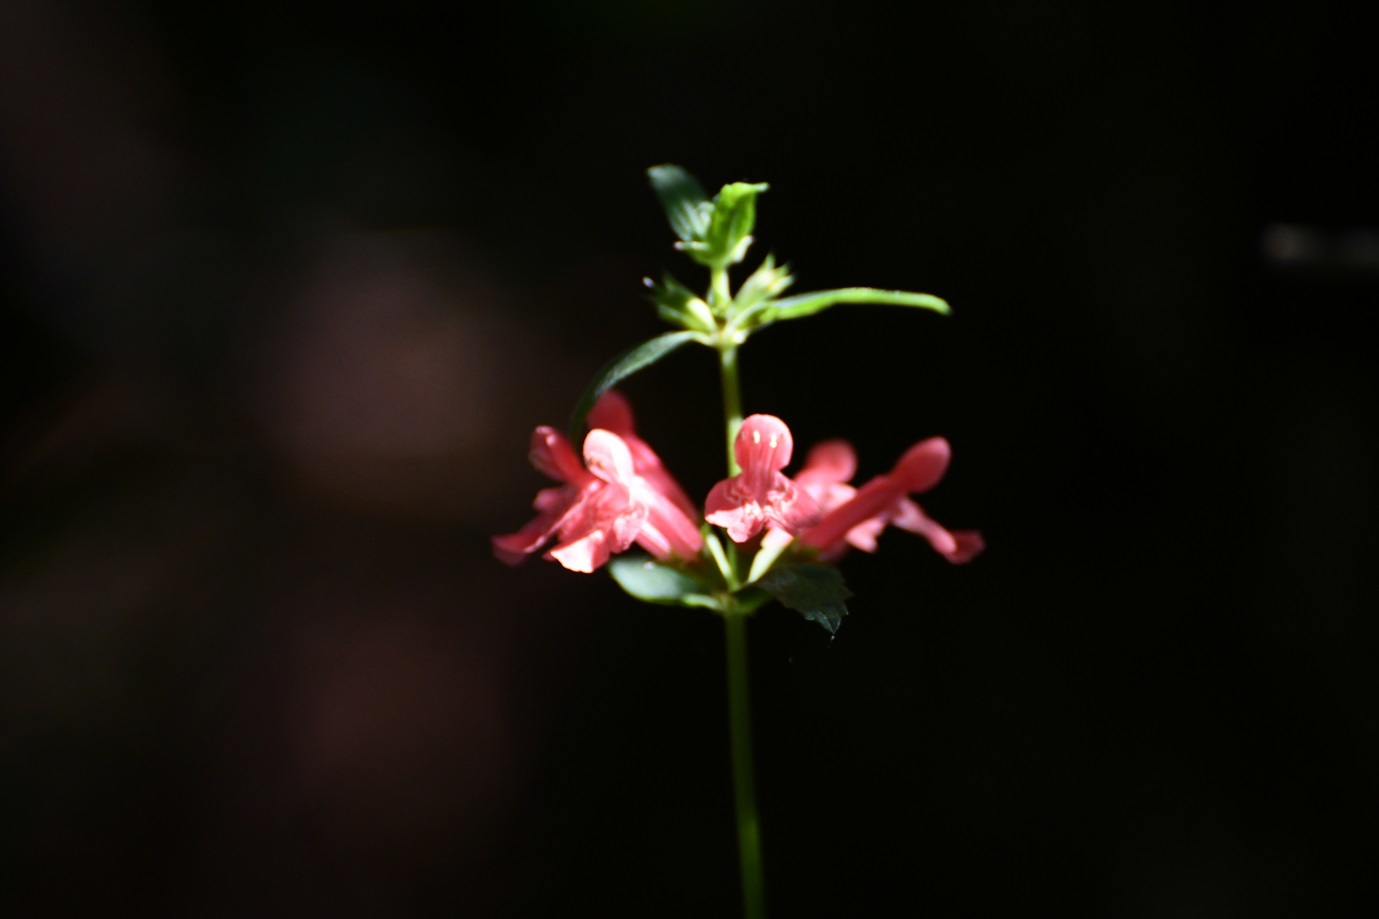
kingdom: Plantae
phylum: Tracheophyta
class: Magnoliopsida
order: Lamiales
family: Lamiaceae
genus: Stachys
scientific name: Stachys coccinea
